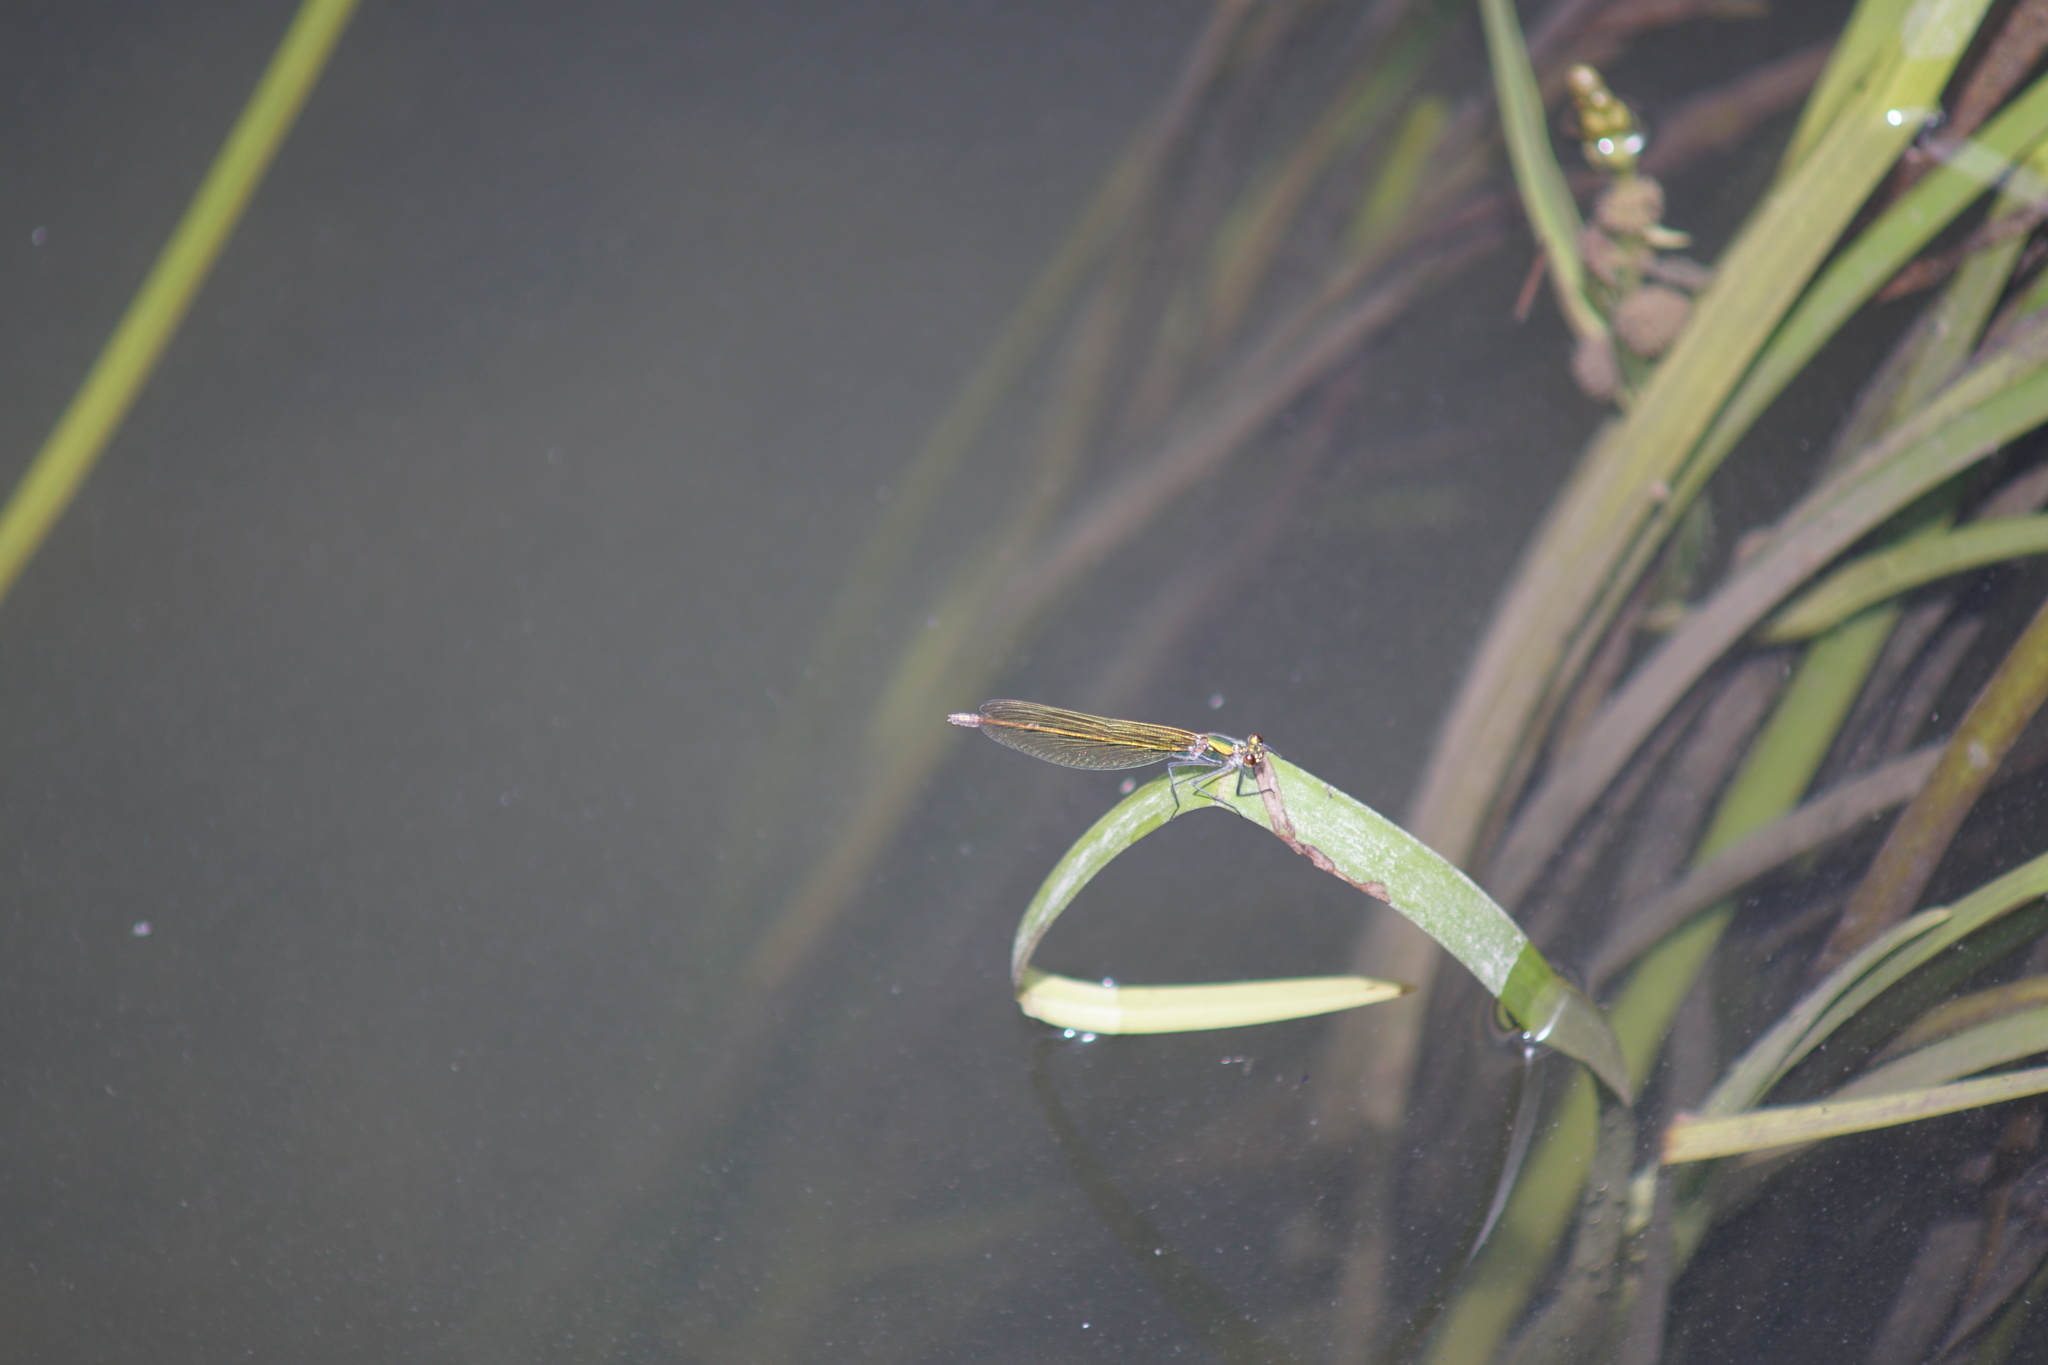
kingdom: Animalia
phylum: Arthropoda
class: Insecta
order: Odonata
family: Calopterygidae
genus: Calopteryx
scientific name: Calopteryx splendens
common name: Banded demoiselle
